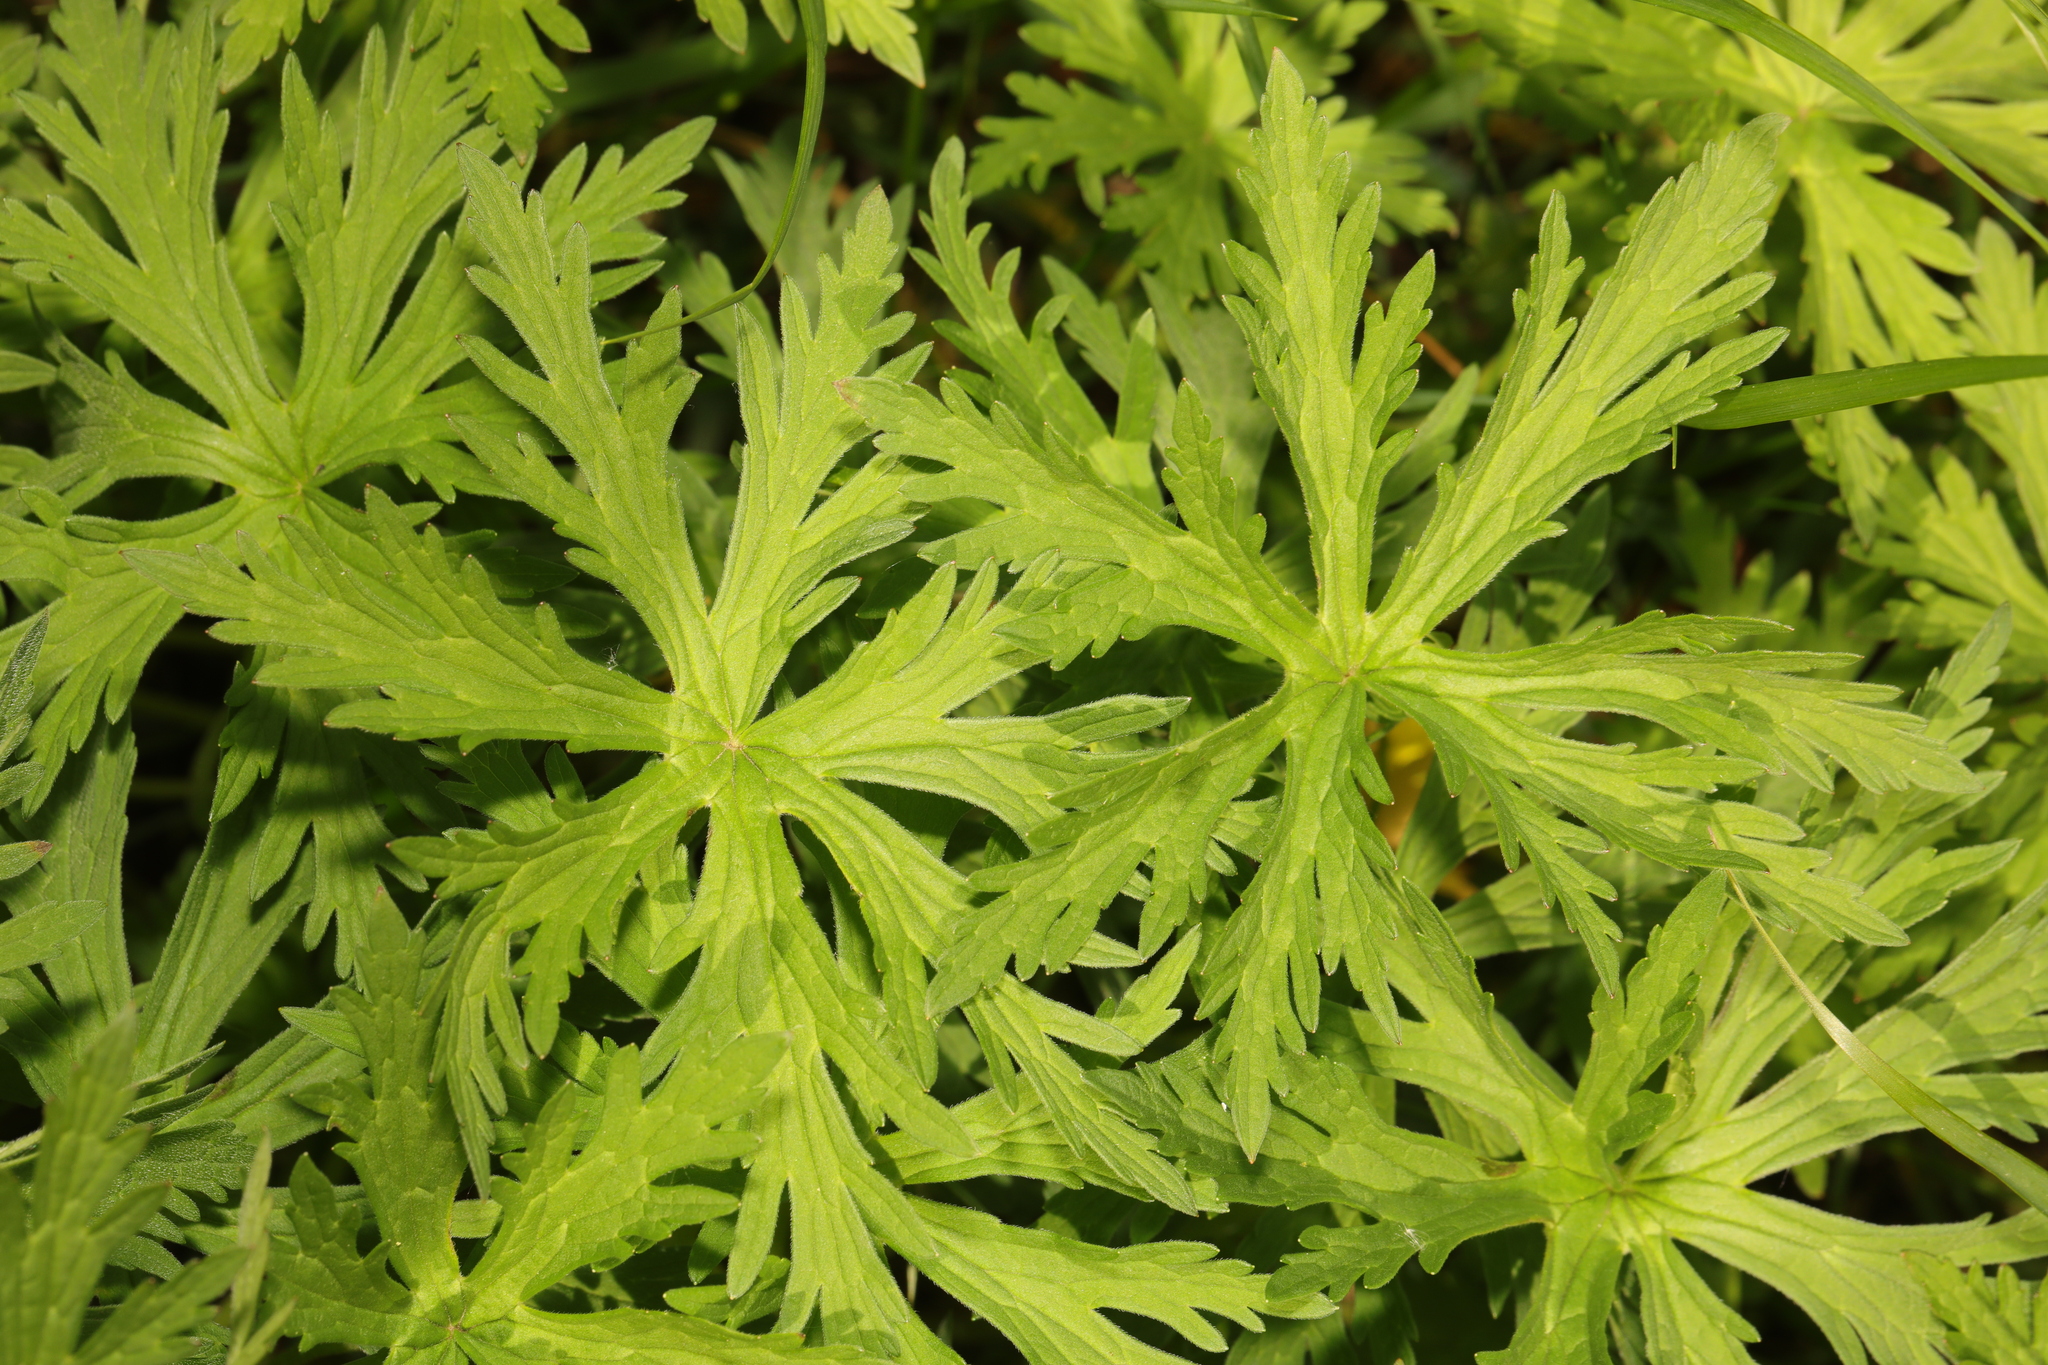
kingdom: Plantae
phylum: Tracheophyta
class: Magnoliopsida
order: Geraniales
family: Geraniaceae
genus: Geranium
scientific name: Geranium pratense
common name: Meadow crane's-bill
